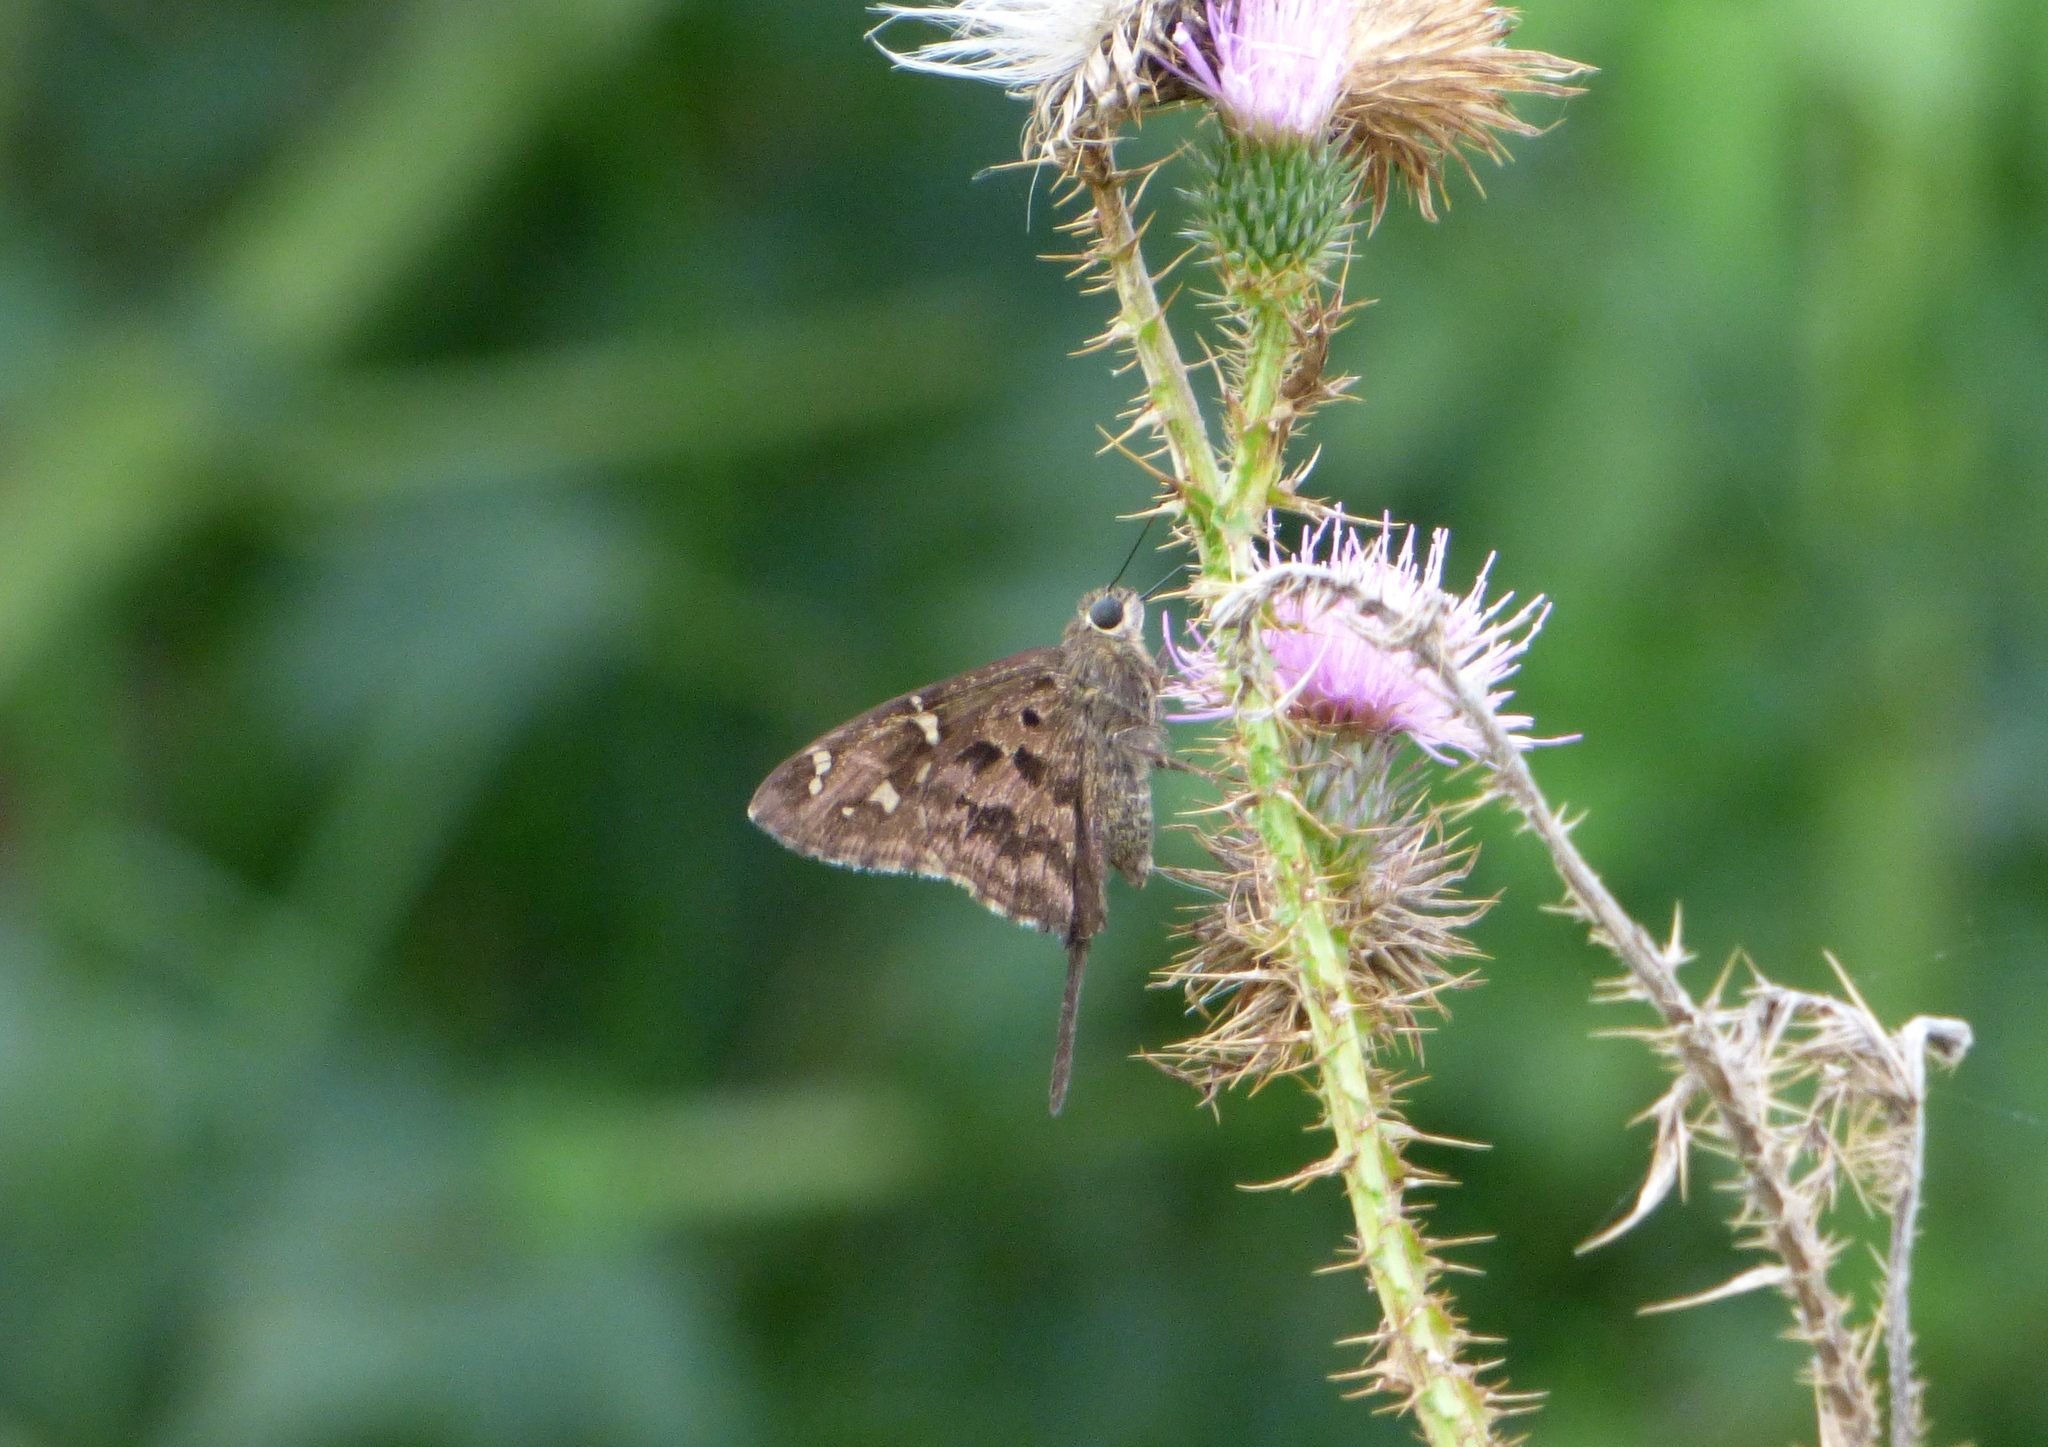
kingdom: Animalia
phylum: Arthropoda
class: Insecta
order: Lepidoptera
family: Hesperiidae
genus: Thorybes
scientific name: Thorybes
